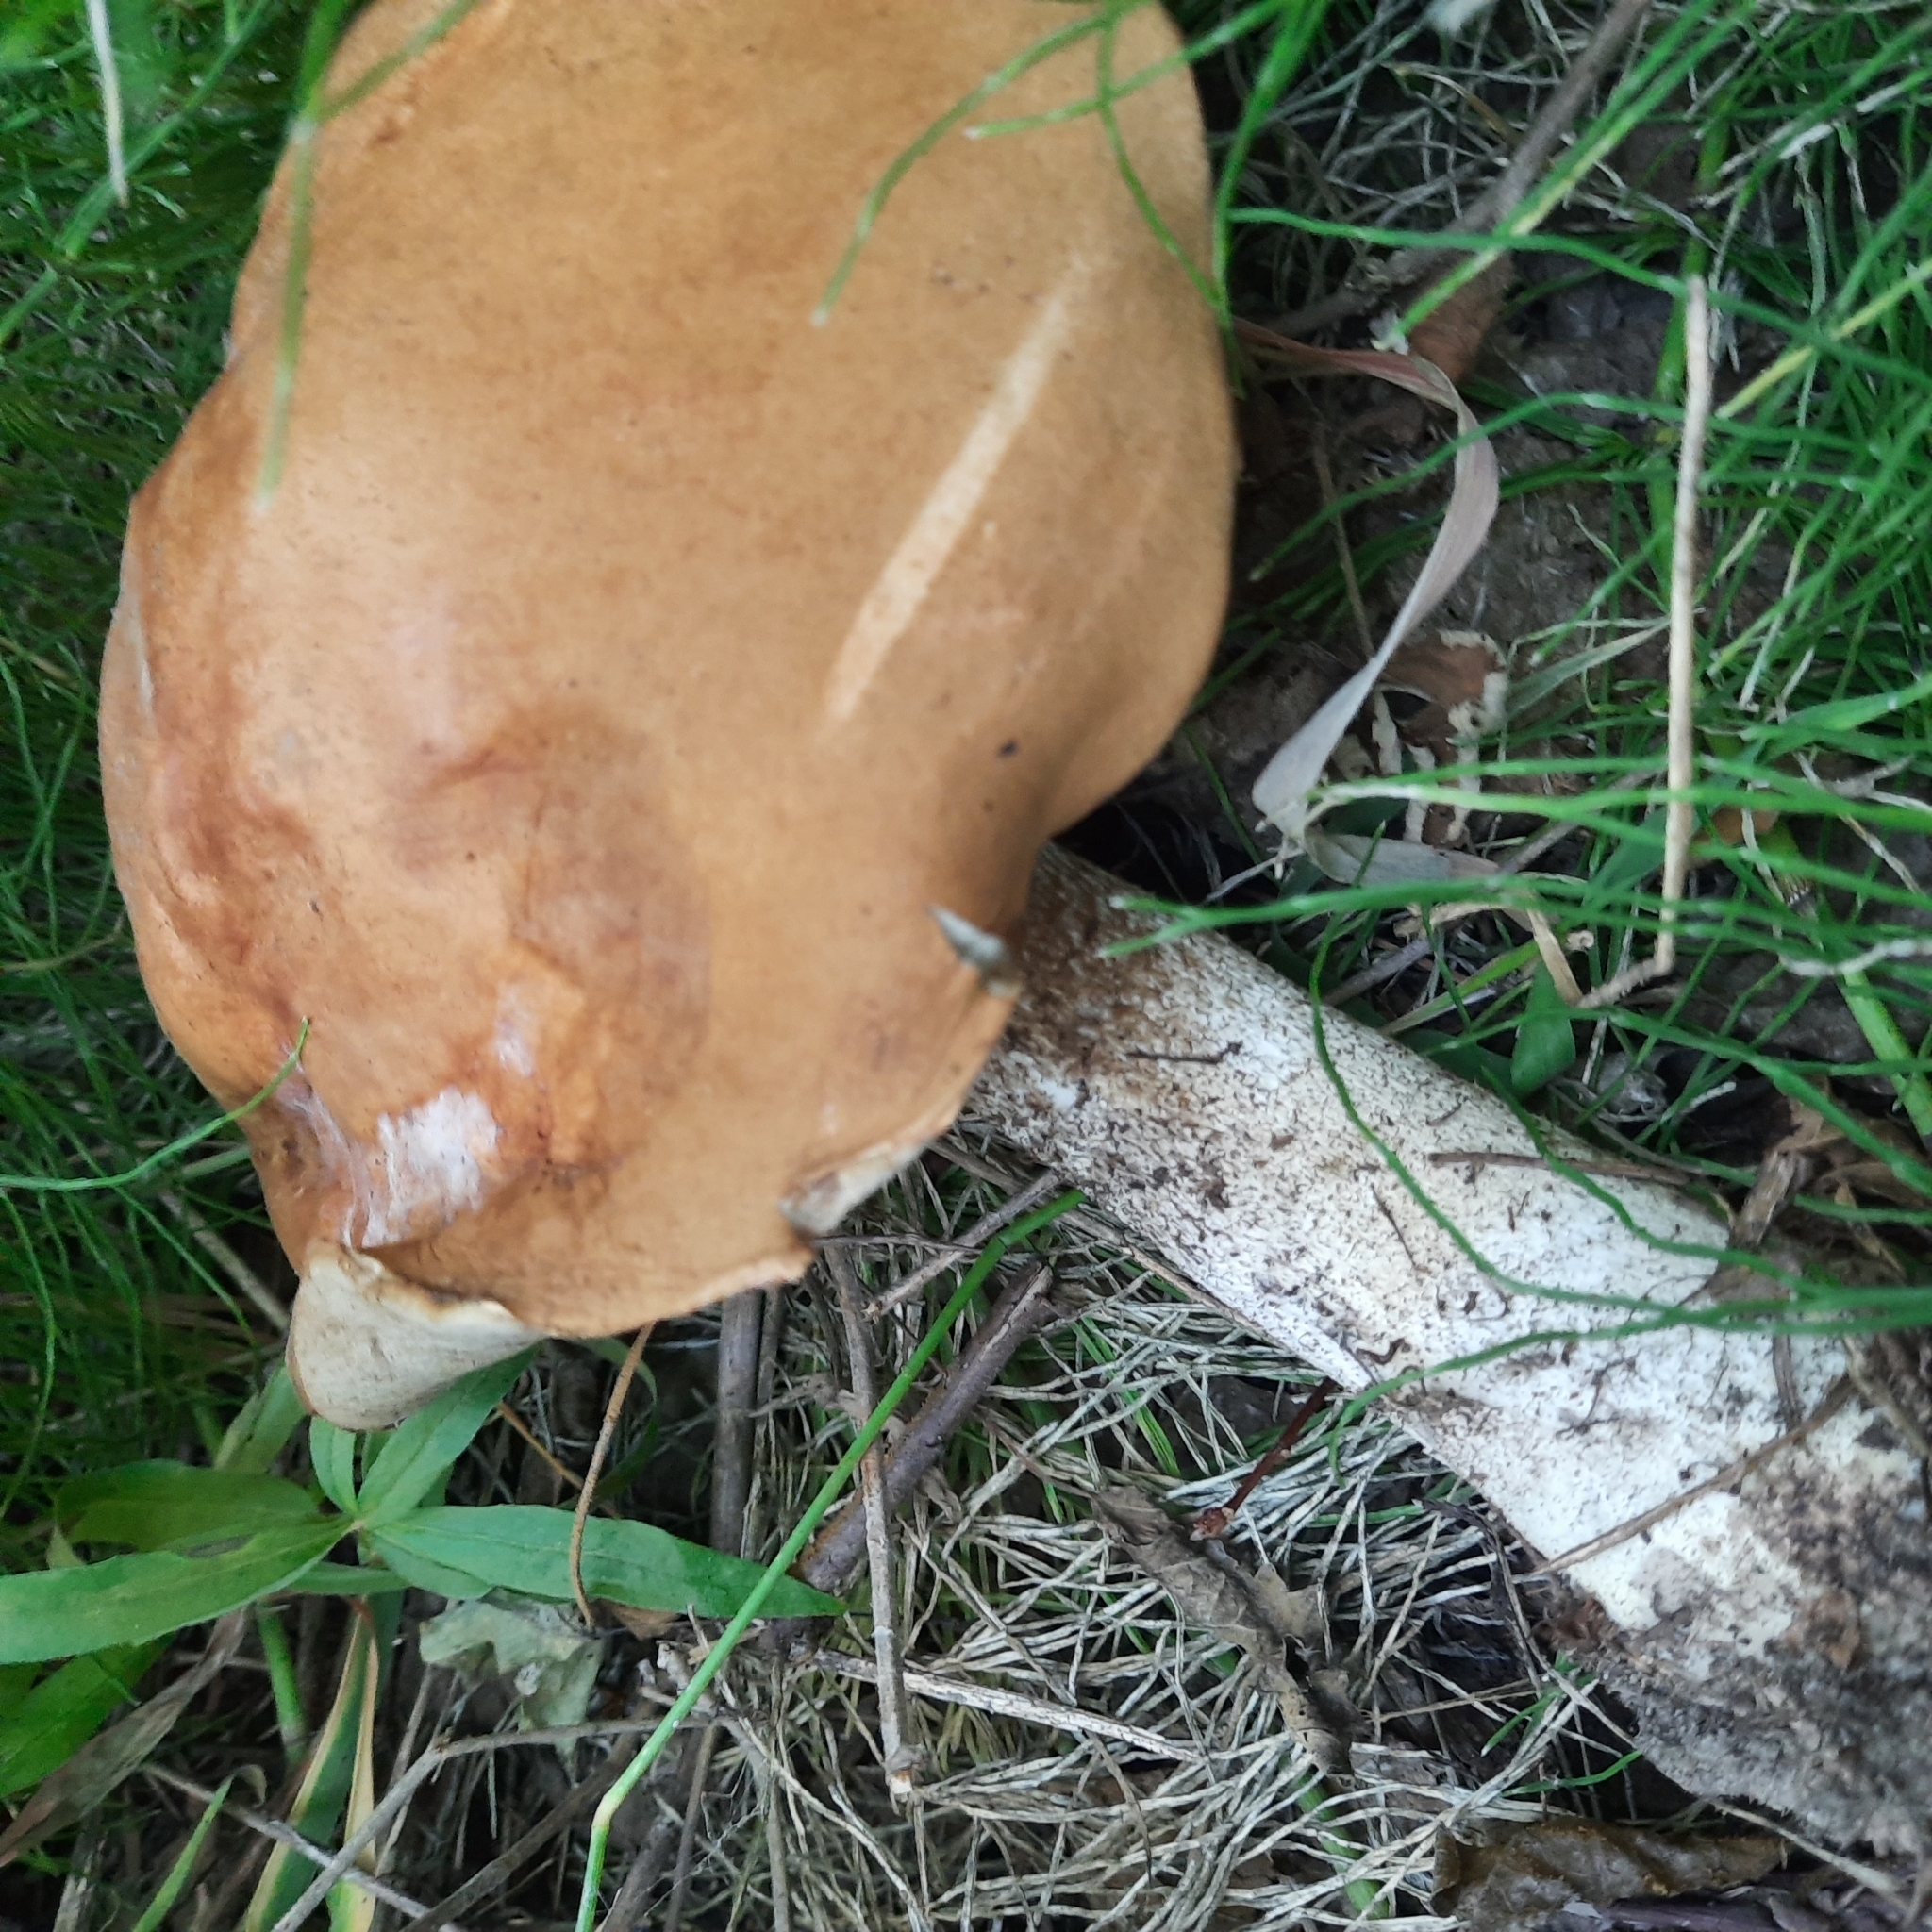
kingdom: Fungi
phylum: Basidiomycota
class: Agaricomycetes
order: Boletales
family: Boletaceae
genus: Leccinum
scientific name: Leccinum versipelle
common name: Orange birch bolete
